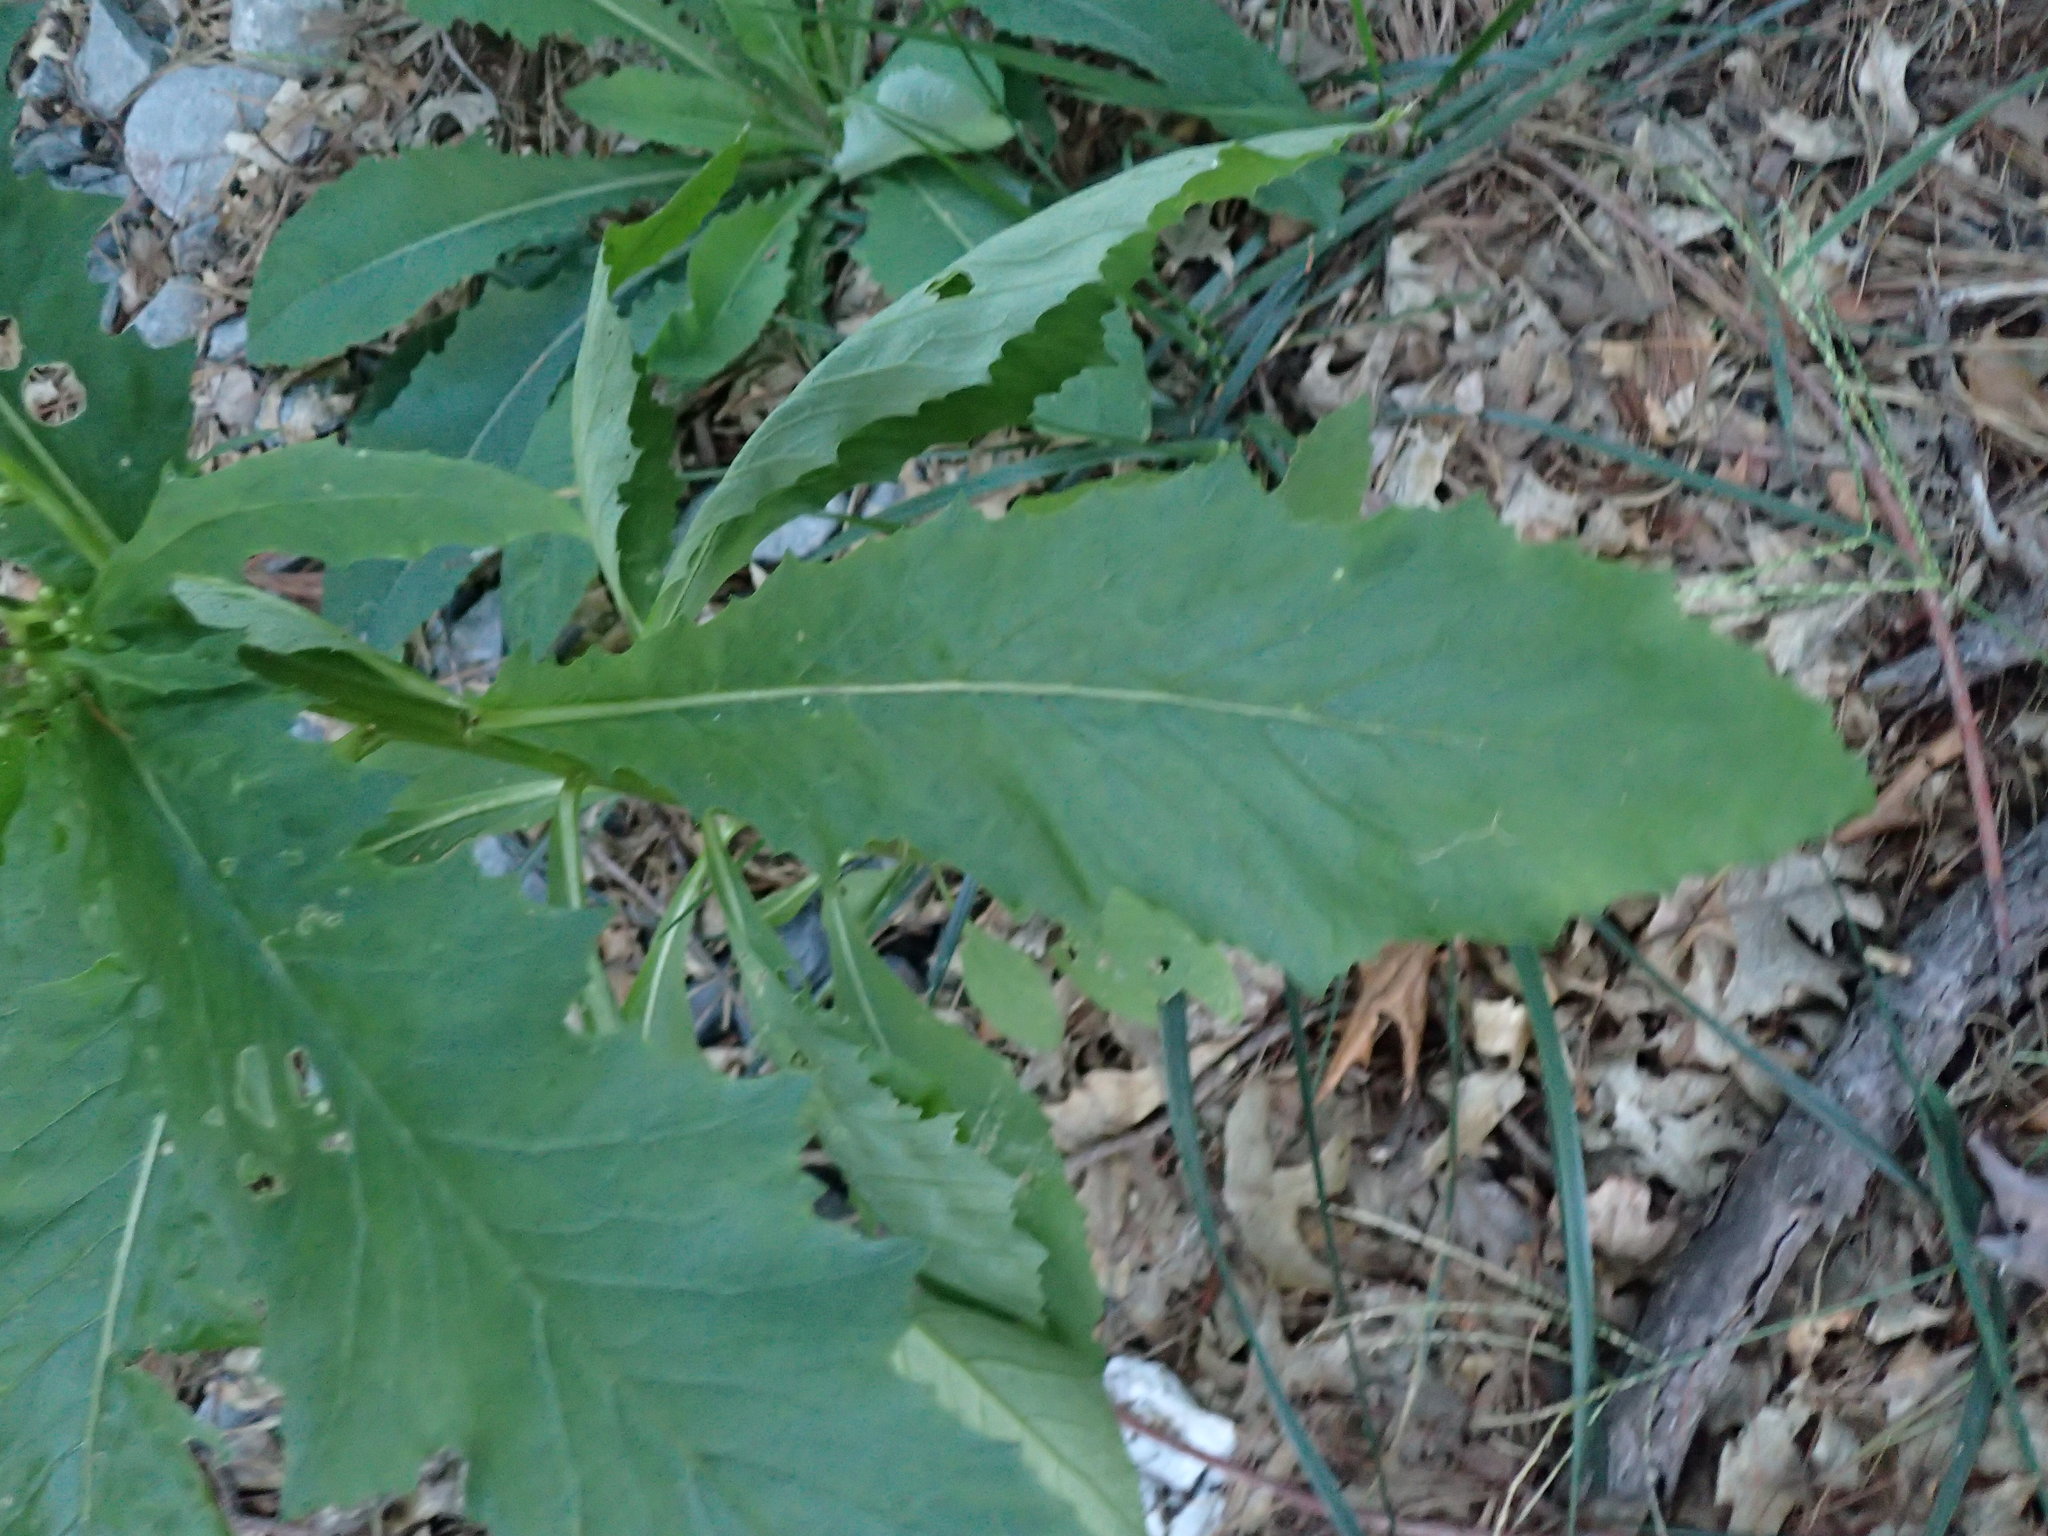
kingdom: Plantae
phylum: Tracheophyta
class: Magnoliopsida
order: Asterales
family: Asteraceae
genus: Erechtites
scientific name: Erechtites hieraciifolius
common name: American burnweed
